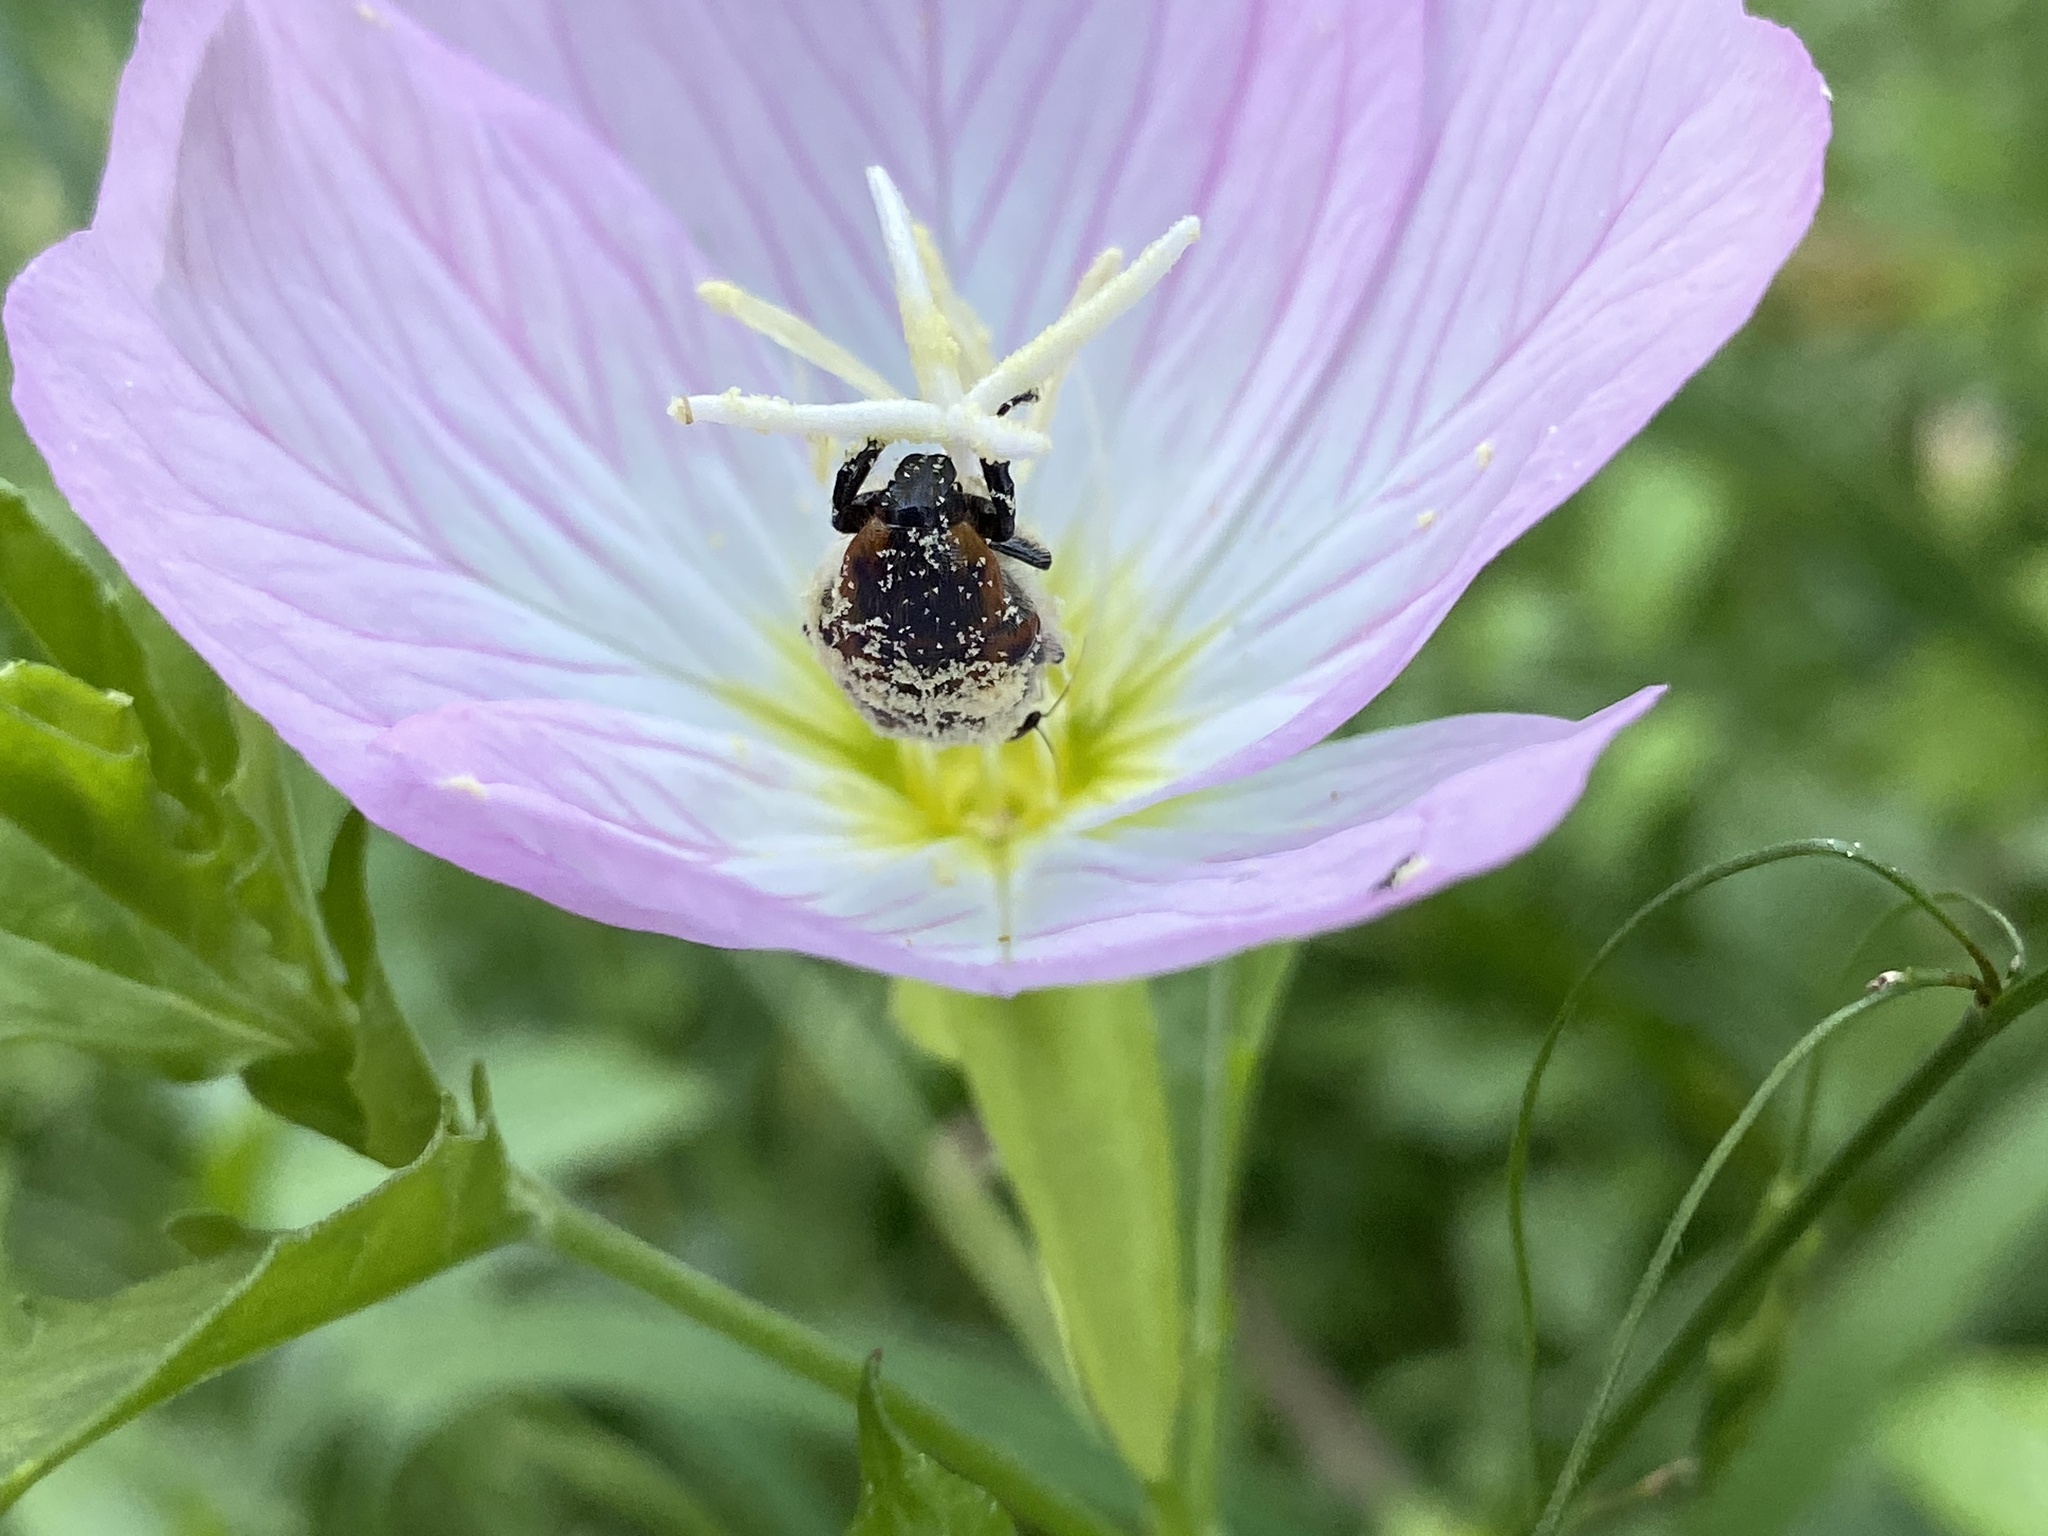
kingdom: Animalia
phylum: Arthropoda
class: Insecta
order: Coleoptera
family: Scarabaeidae
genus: Euphoria
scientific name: Euphoria kernii
